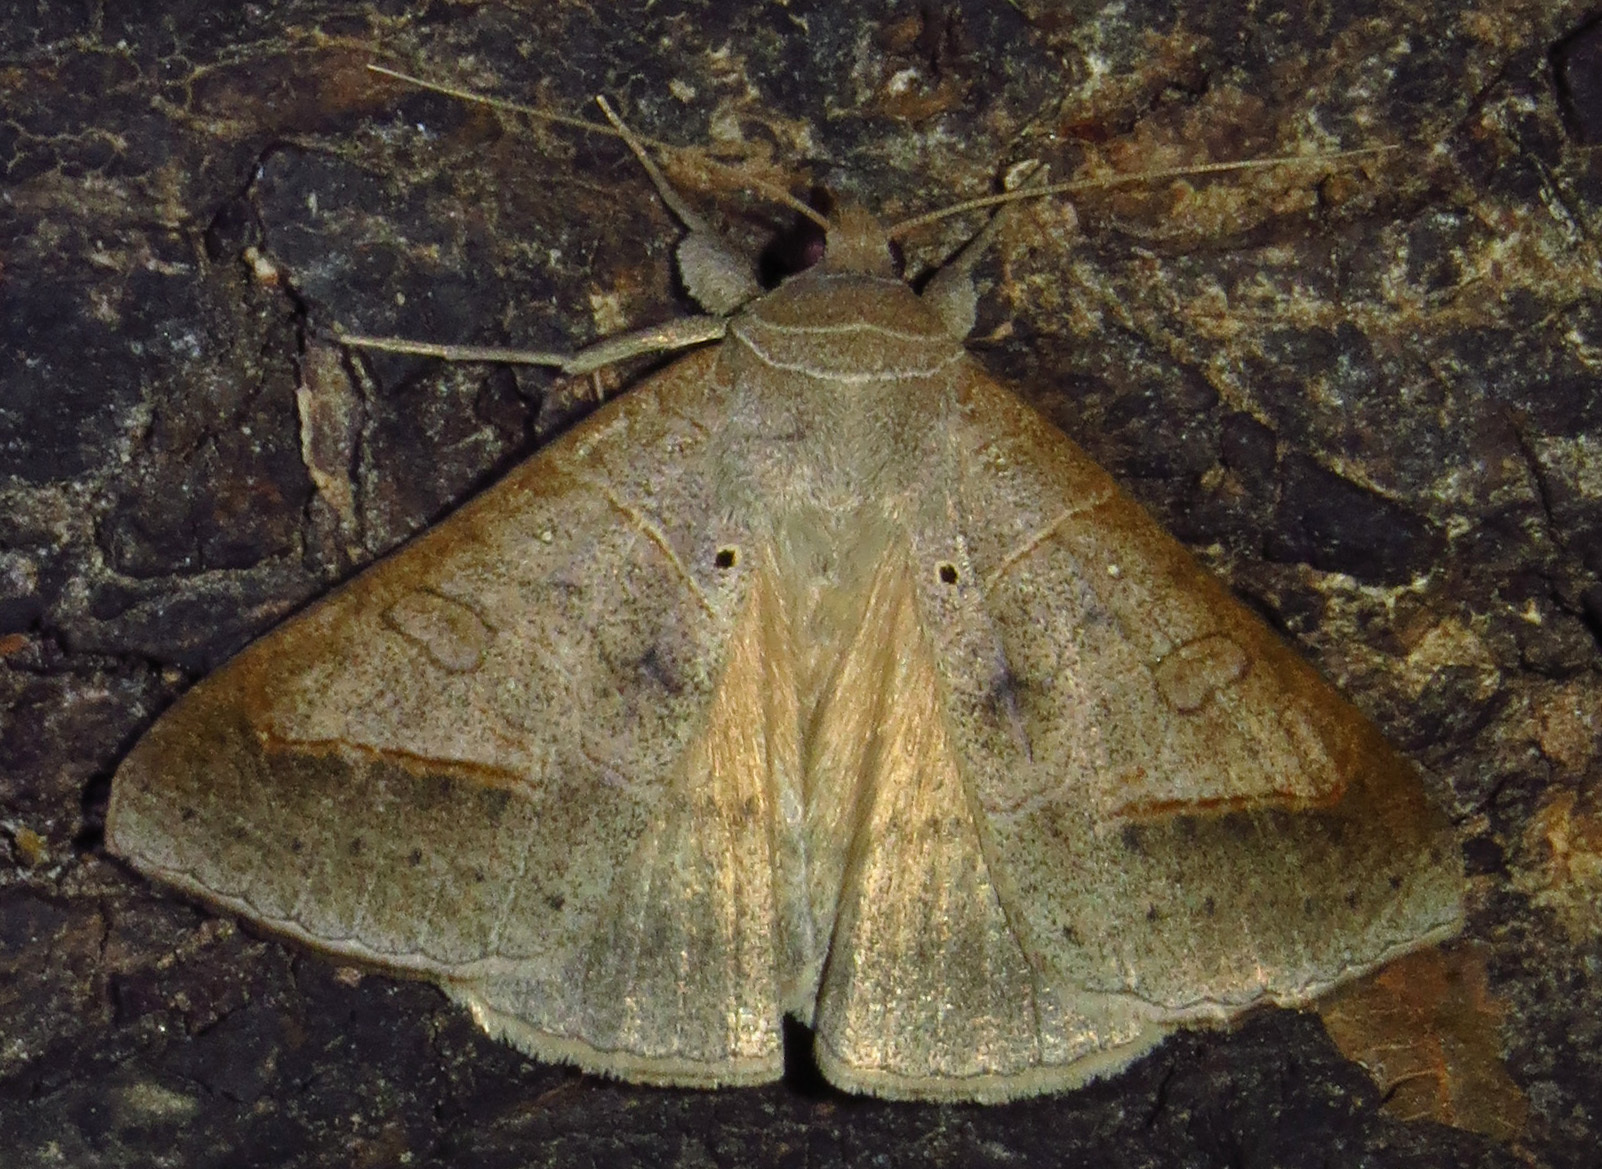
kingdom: Animalia
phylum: Arthropoda
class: Insecta
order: Lepidoptera
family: Erebidae
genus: Mocis
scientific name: Mocis marcida
